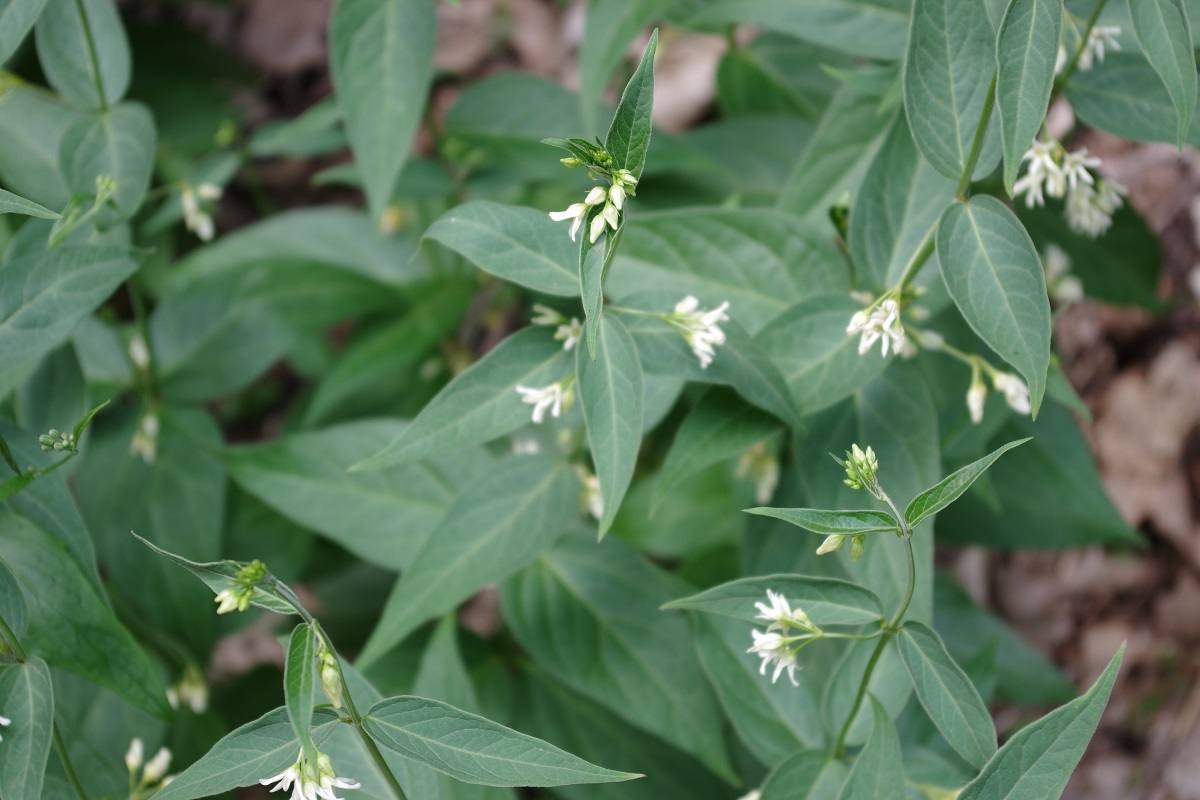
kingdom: Plantae
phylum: Tracheophyta
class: Magnoliopsida
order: Gentianales
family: Apocynaceae
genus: Vincetoxicum
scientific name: Vincetoxicum hirundinaria
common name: White swallowwort
